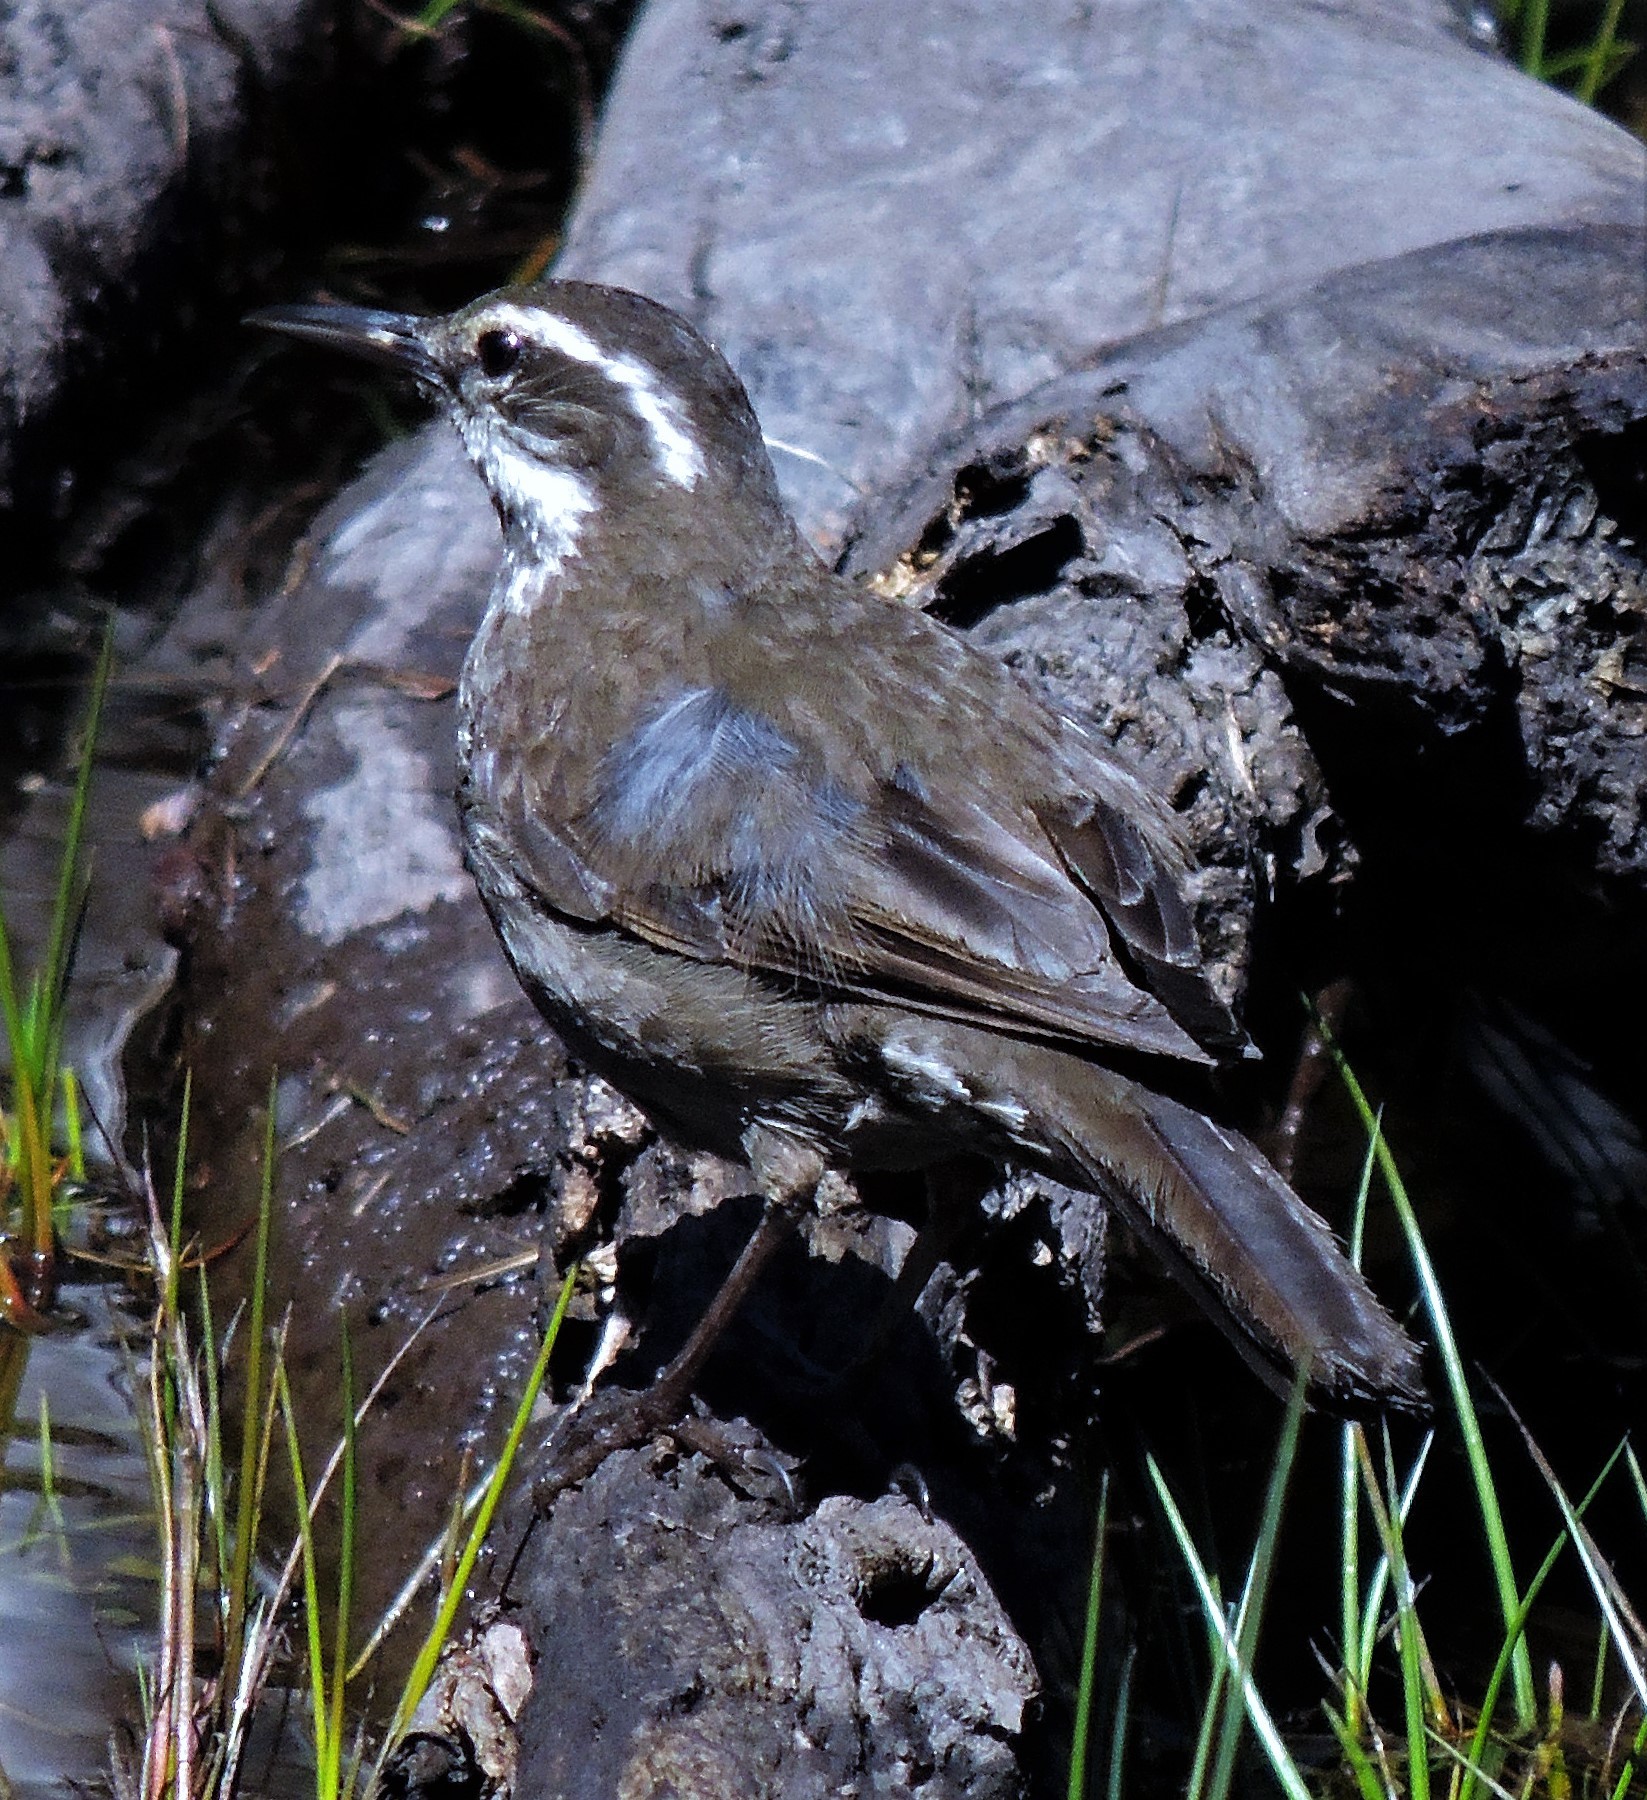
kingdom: Animalia
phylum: Chordata
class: Aves
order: Passeriformes
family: Furnariidae
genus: Cinclodes
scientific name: Cinclodes patagonicus
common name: Dark-bellied cinclodes
